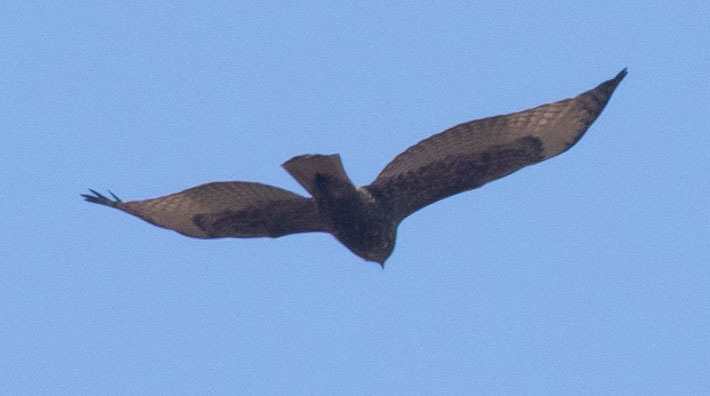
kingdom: Animalia
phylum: Chordata
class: Aves
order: Accipitriformes
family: Accipitridae
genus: Buteo
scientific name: Buteo jamaicensis
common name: Red-tailed hawk
